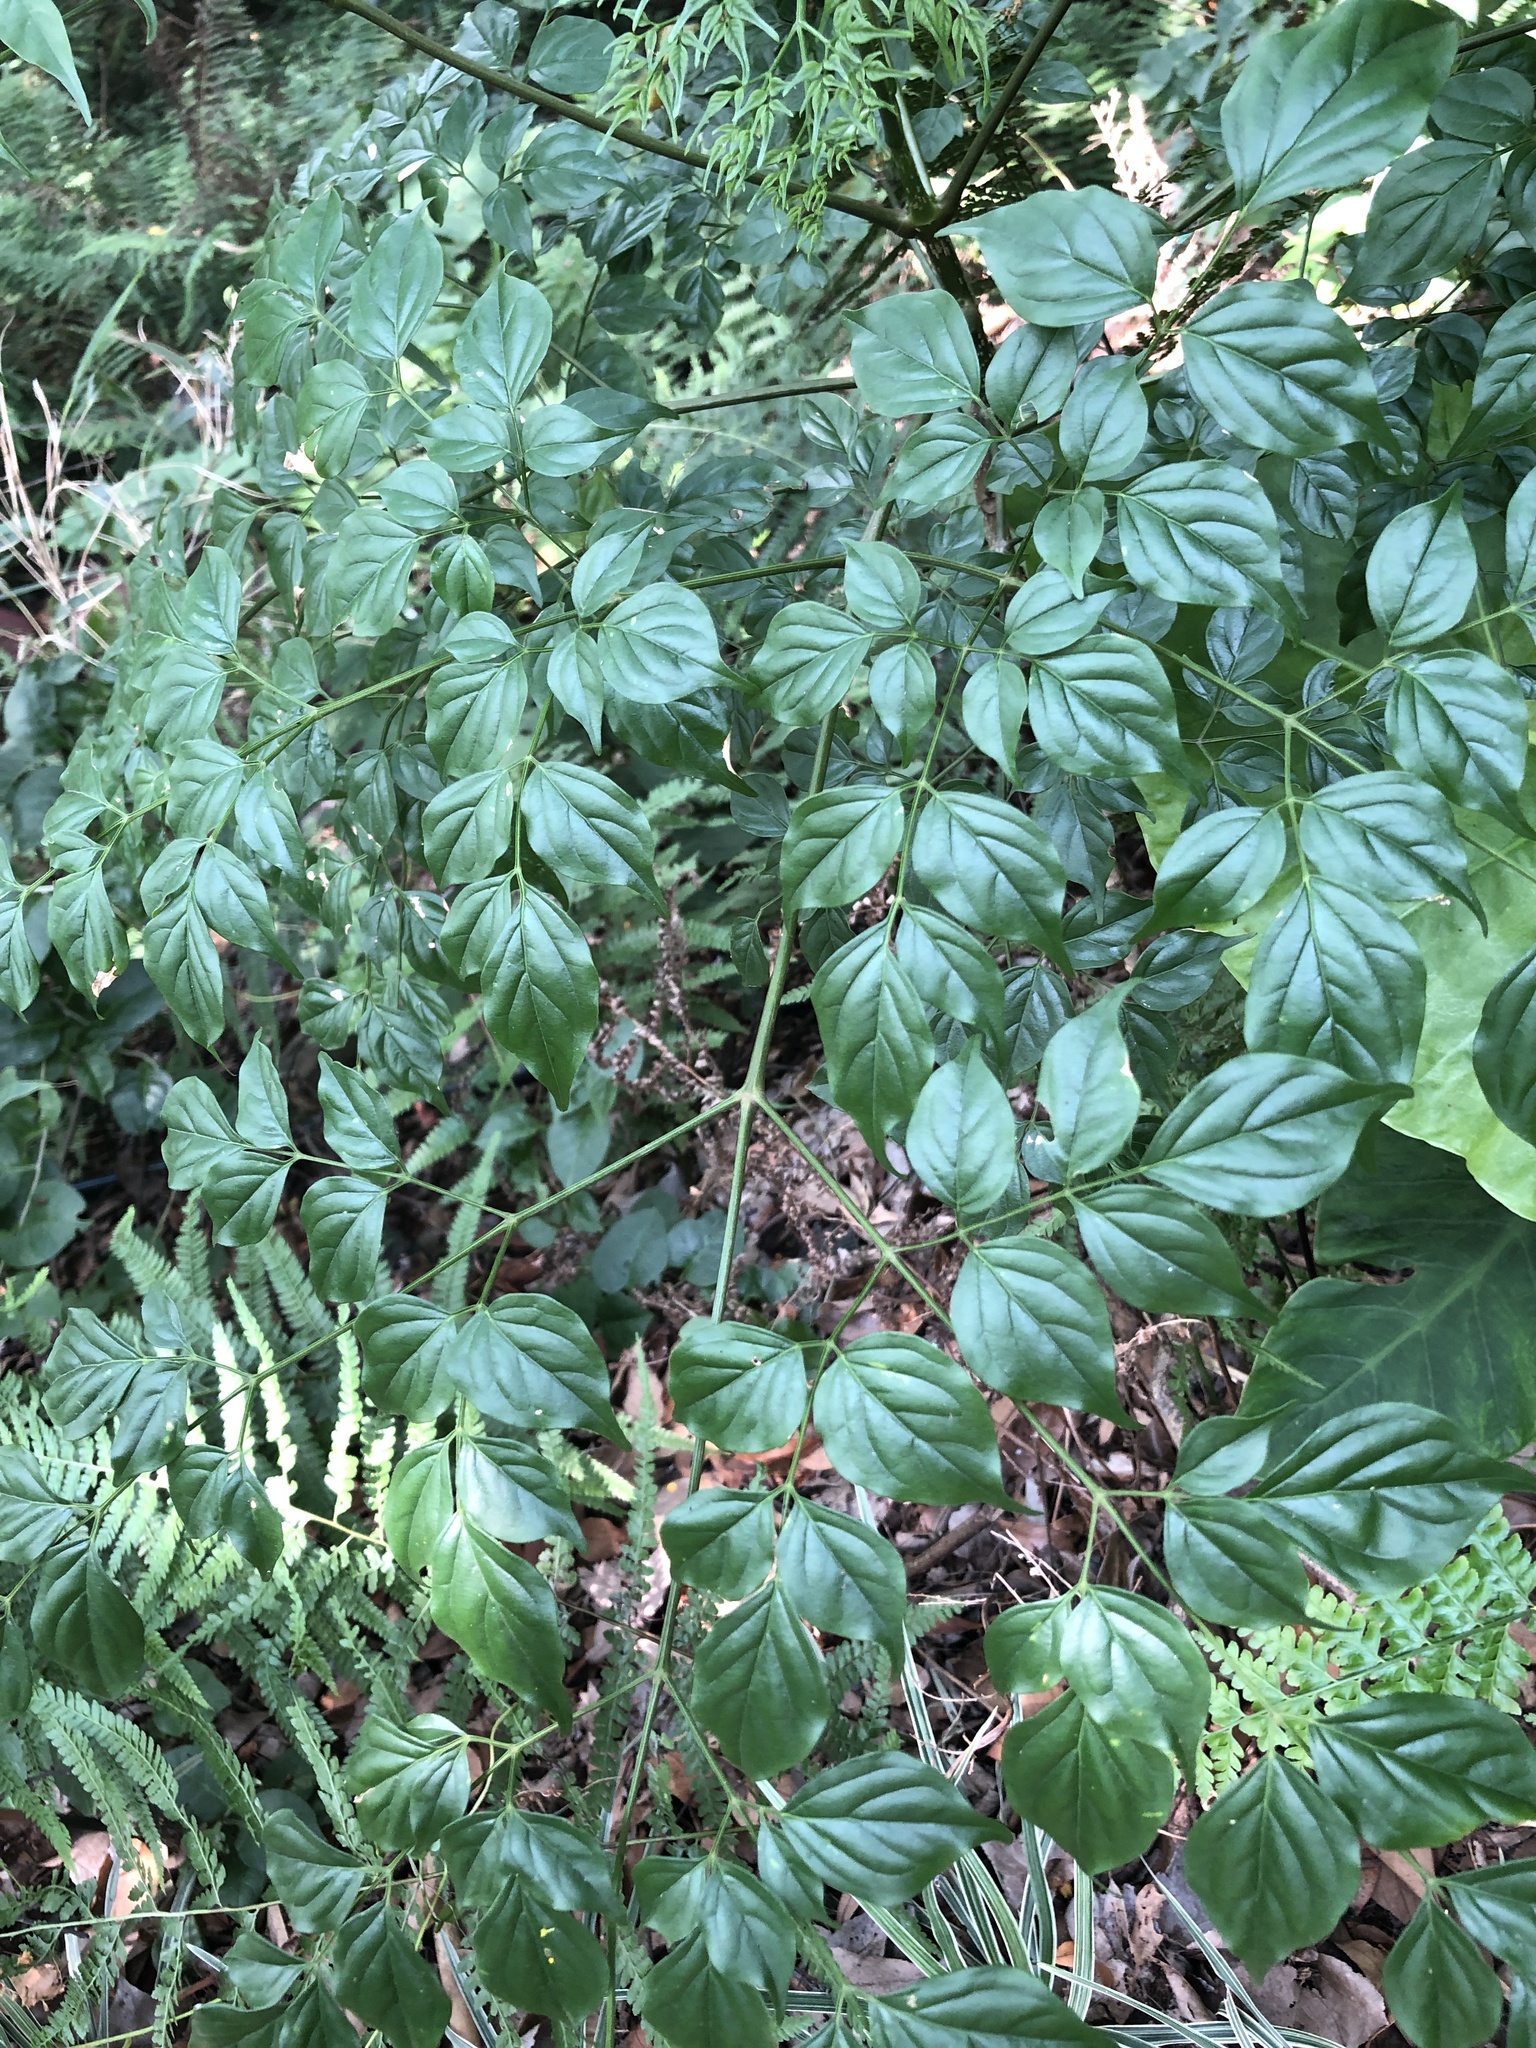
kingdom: Plantae
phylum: Tracheophyta
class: Magnoliopsida
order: Lamiales
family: Bignoniaceae
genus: Radermachera
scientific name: Radermachera sinica
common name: China doll plant
